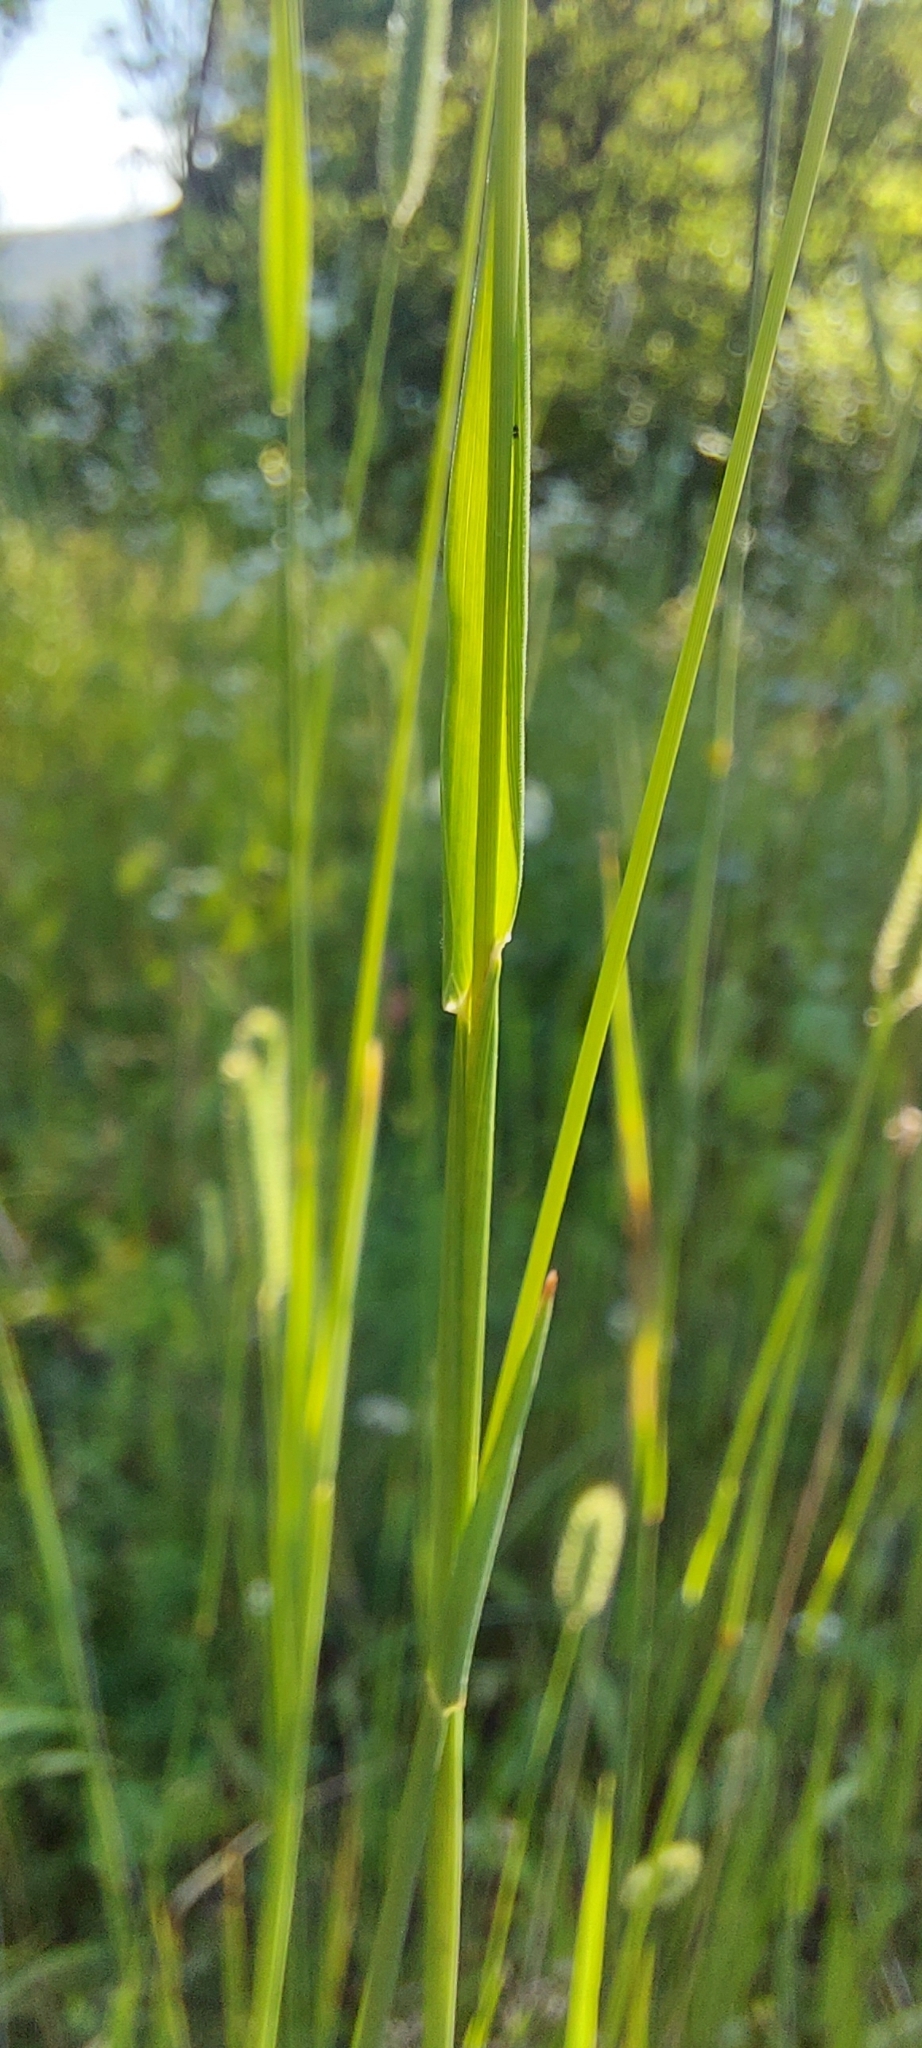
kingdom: Plantae
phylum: Tracheophyta
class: Liliopsida
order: Poales
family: Poaceae
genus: Phleum
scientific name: Phleum pratense
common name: Timothy grass
